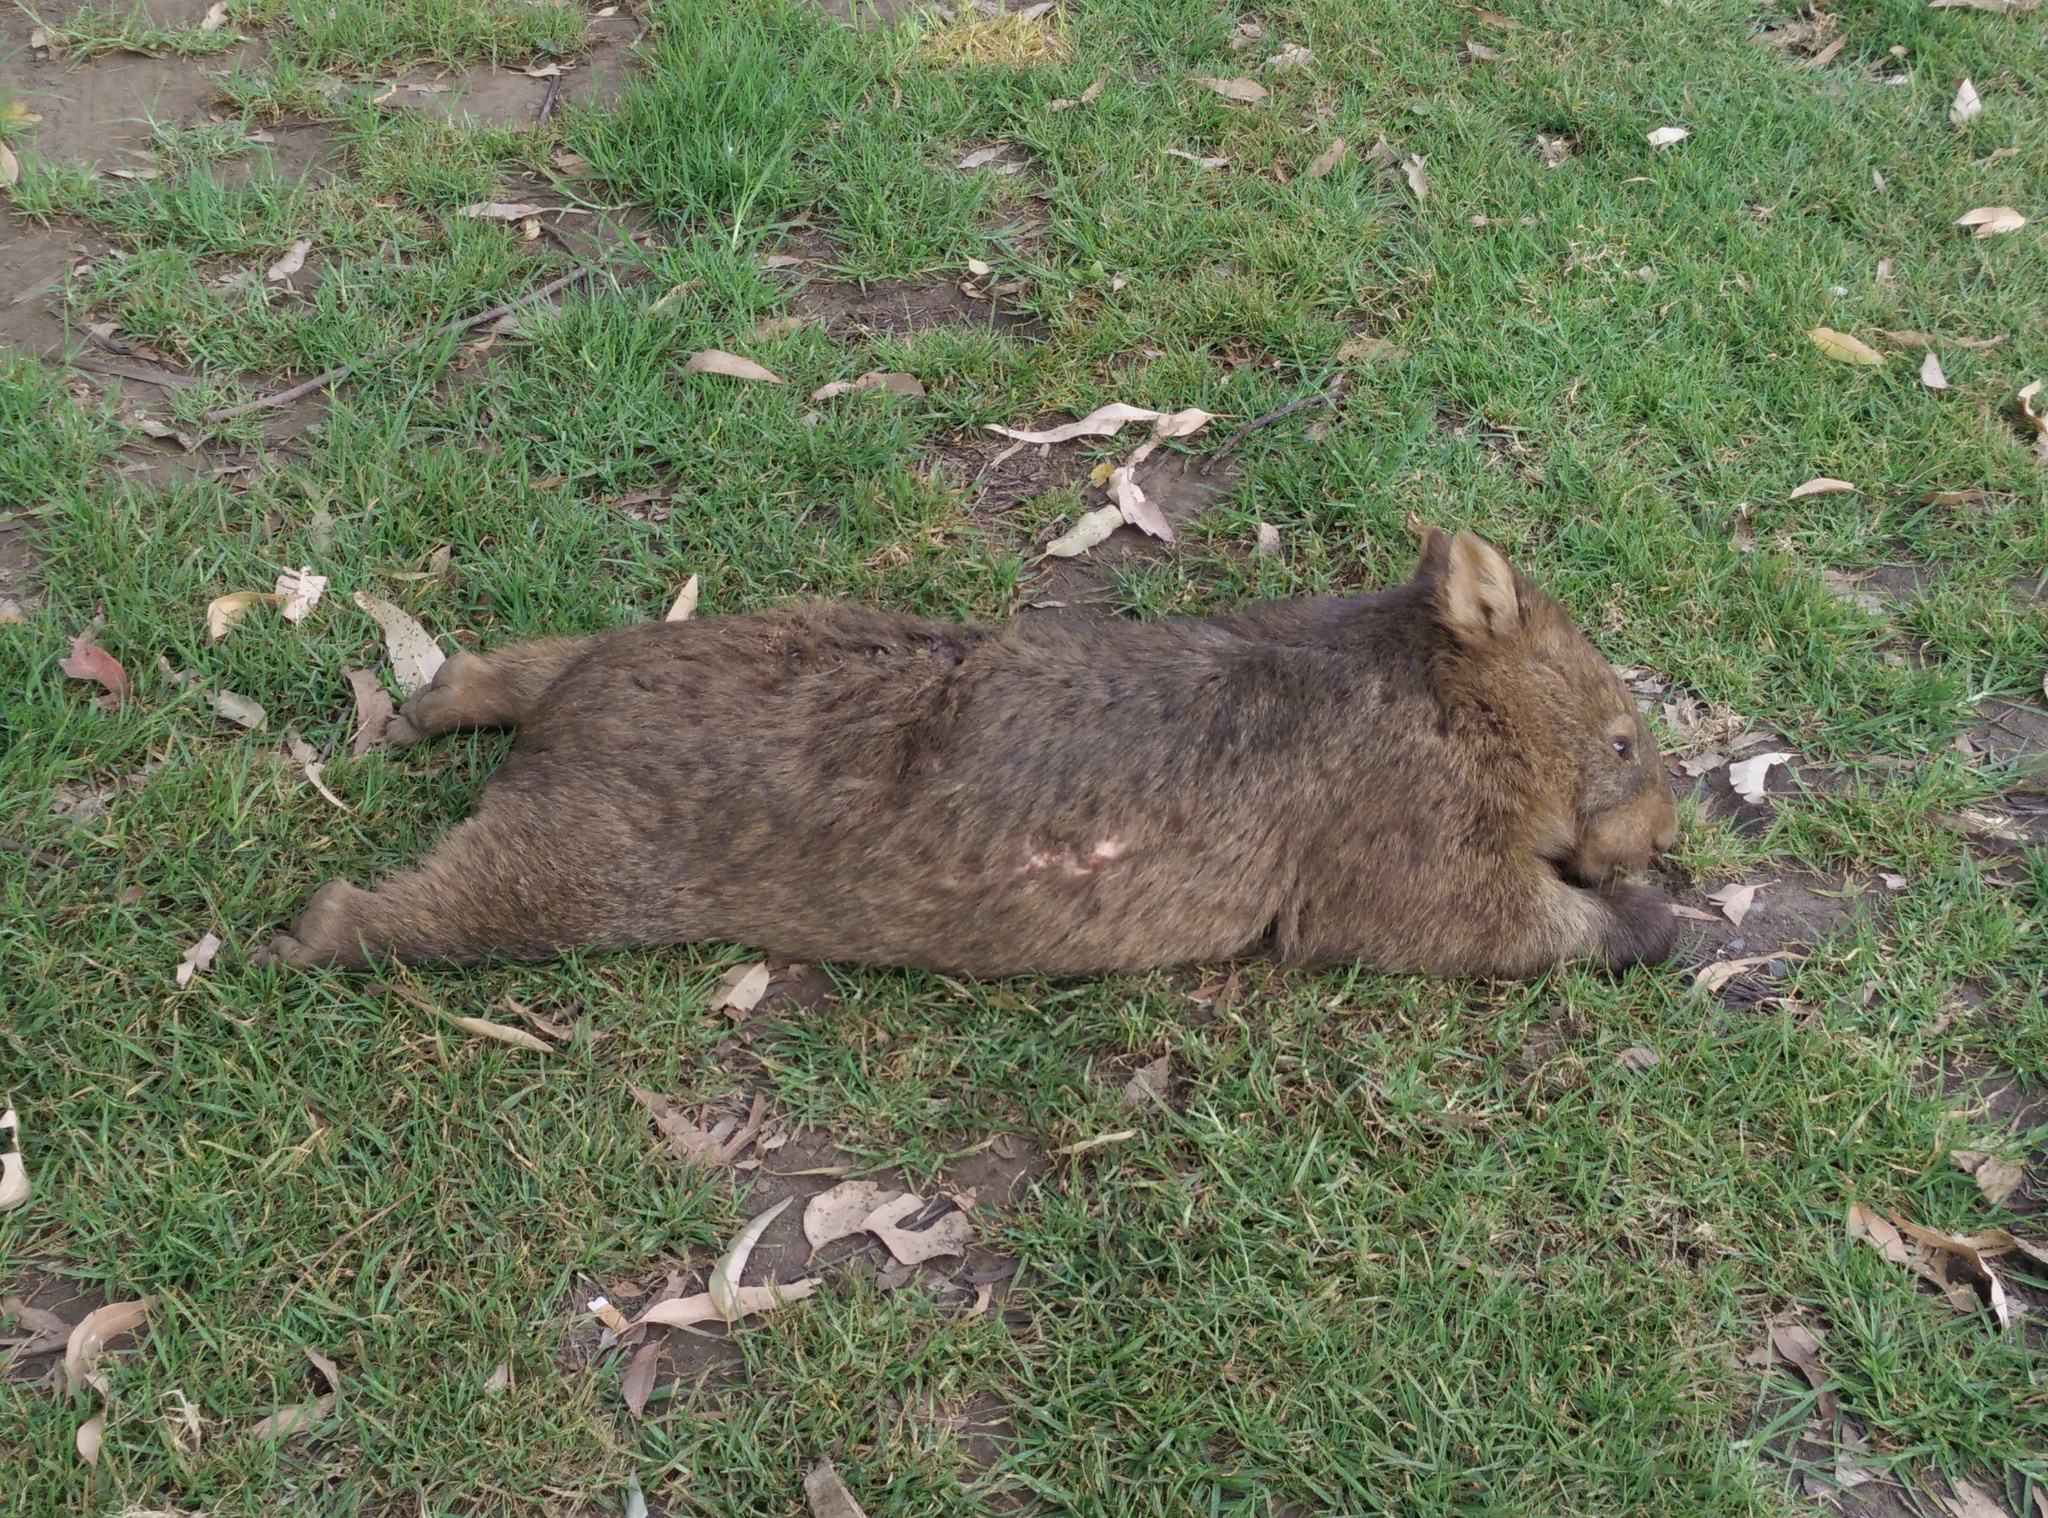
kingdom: Animalia
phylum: Chordata
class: Mammalia
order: Diprotodontia
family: Vombatidae
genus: Vombatus
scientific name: Vombatus ursinus
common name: Common wombat
